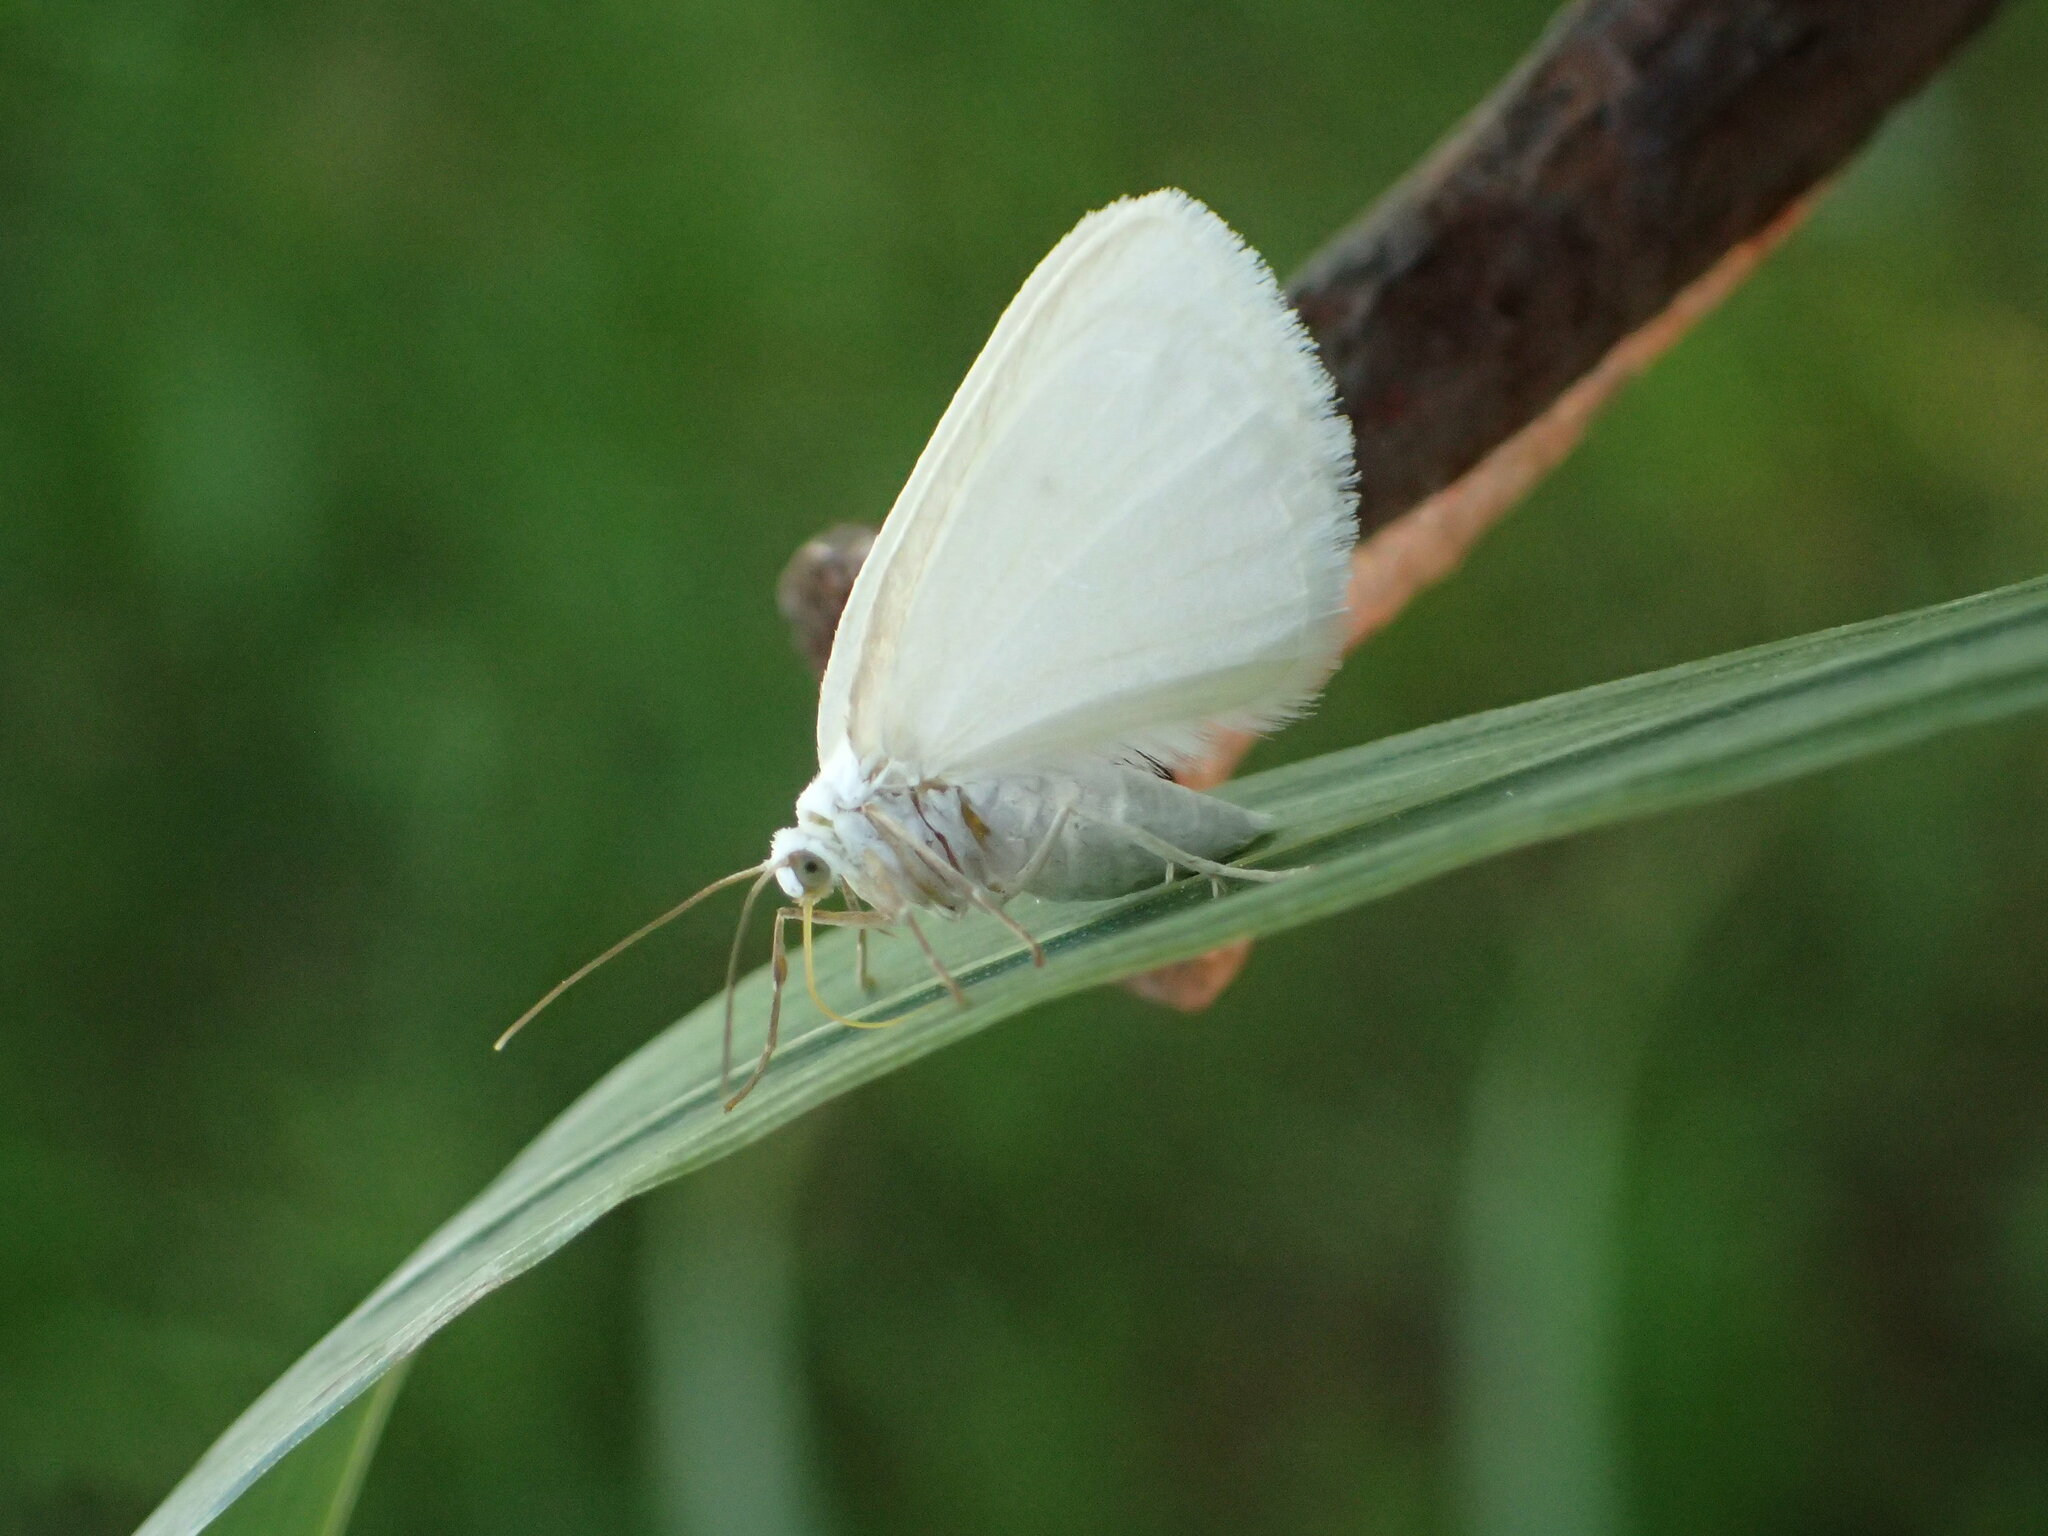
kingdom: Animalia
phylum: Arthropoda
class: Insecta
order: Lepidoptera
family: Geometridae
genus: Lomographa
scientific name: Lomographa vestaliata
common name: White spring moth
